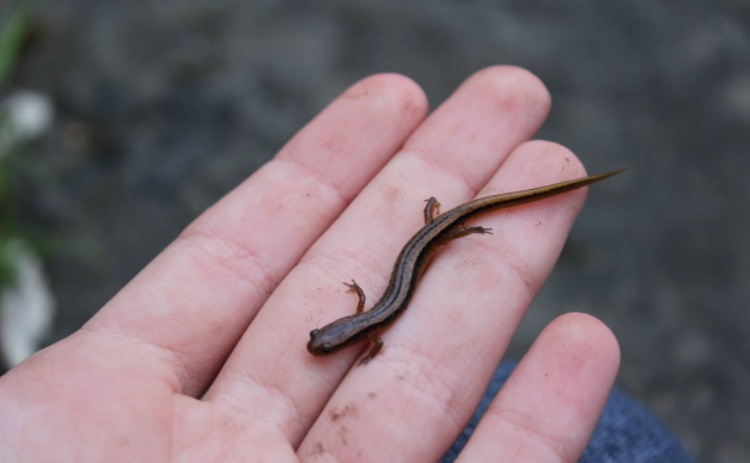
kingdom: Animalia
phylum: Chordata
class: Amphibia
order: Caudata
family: Plethodontidae
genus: Eurycea
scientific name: Eurycea cirrigera
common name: Southern two-lined salamander
